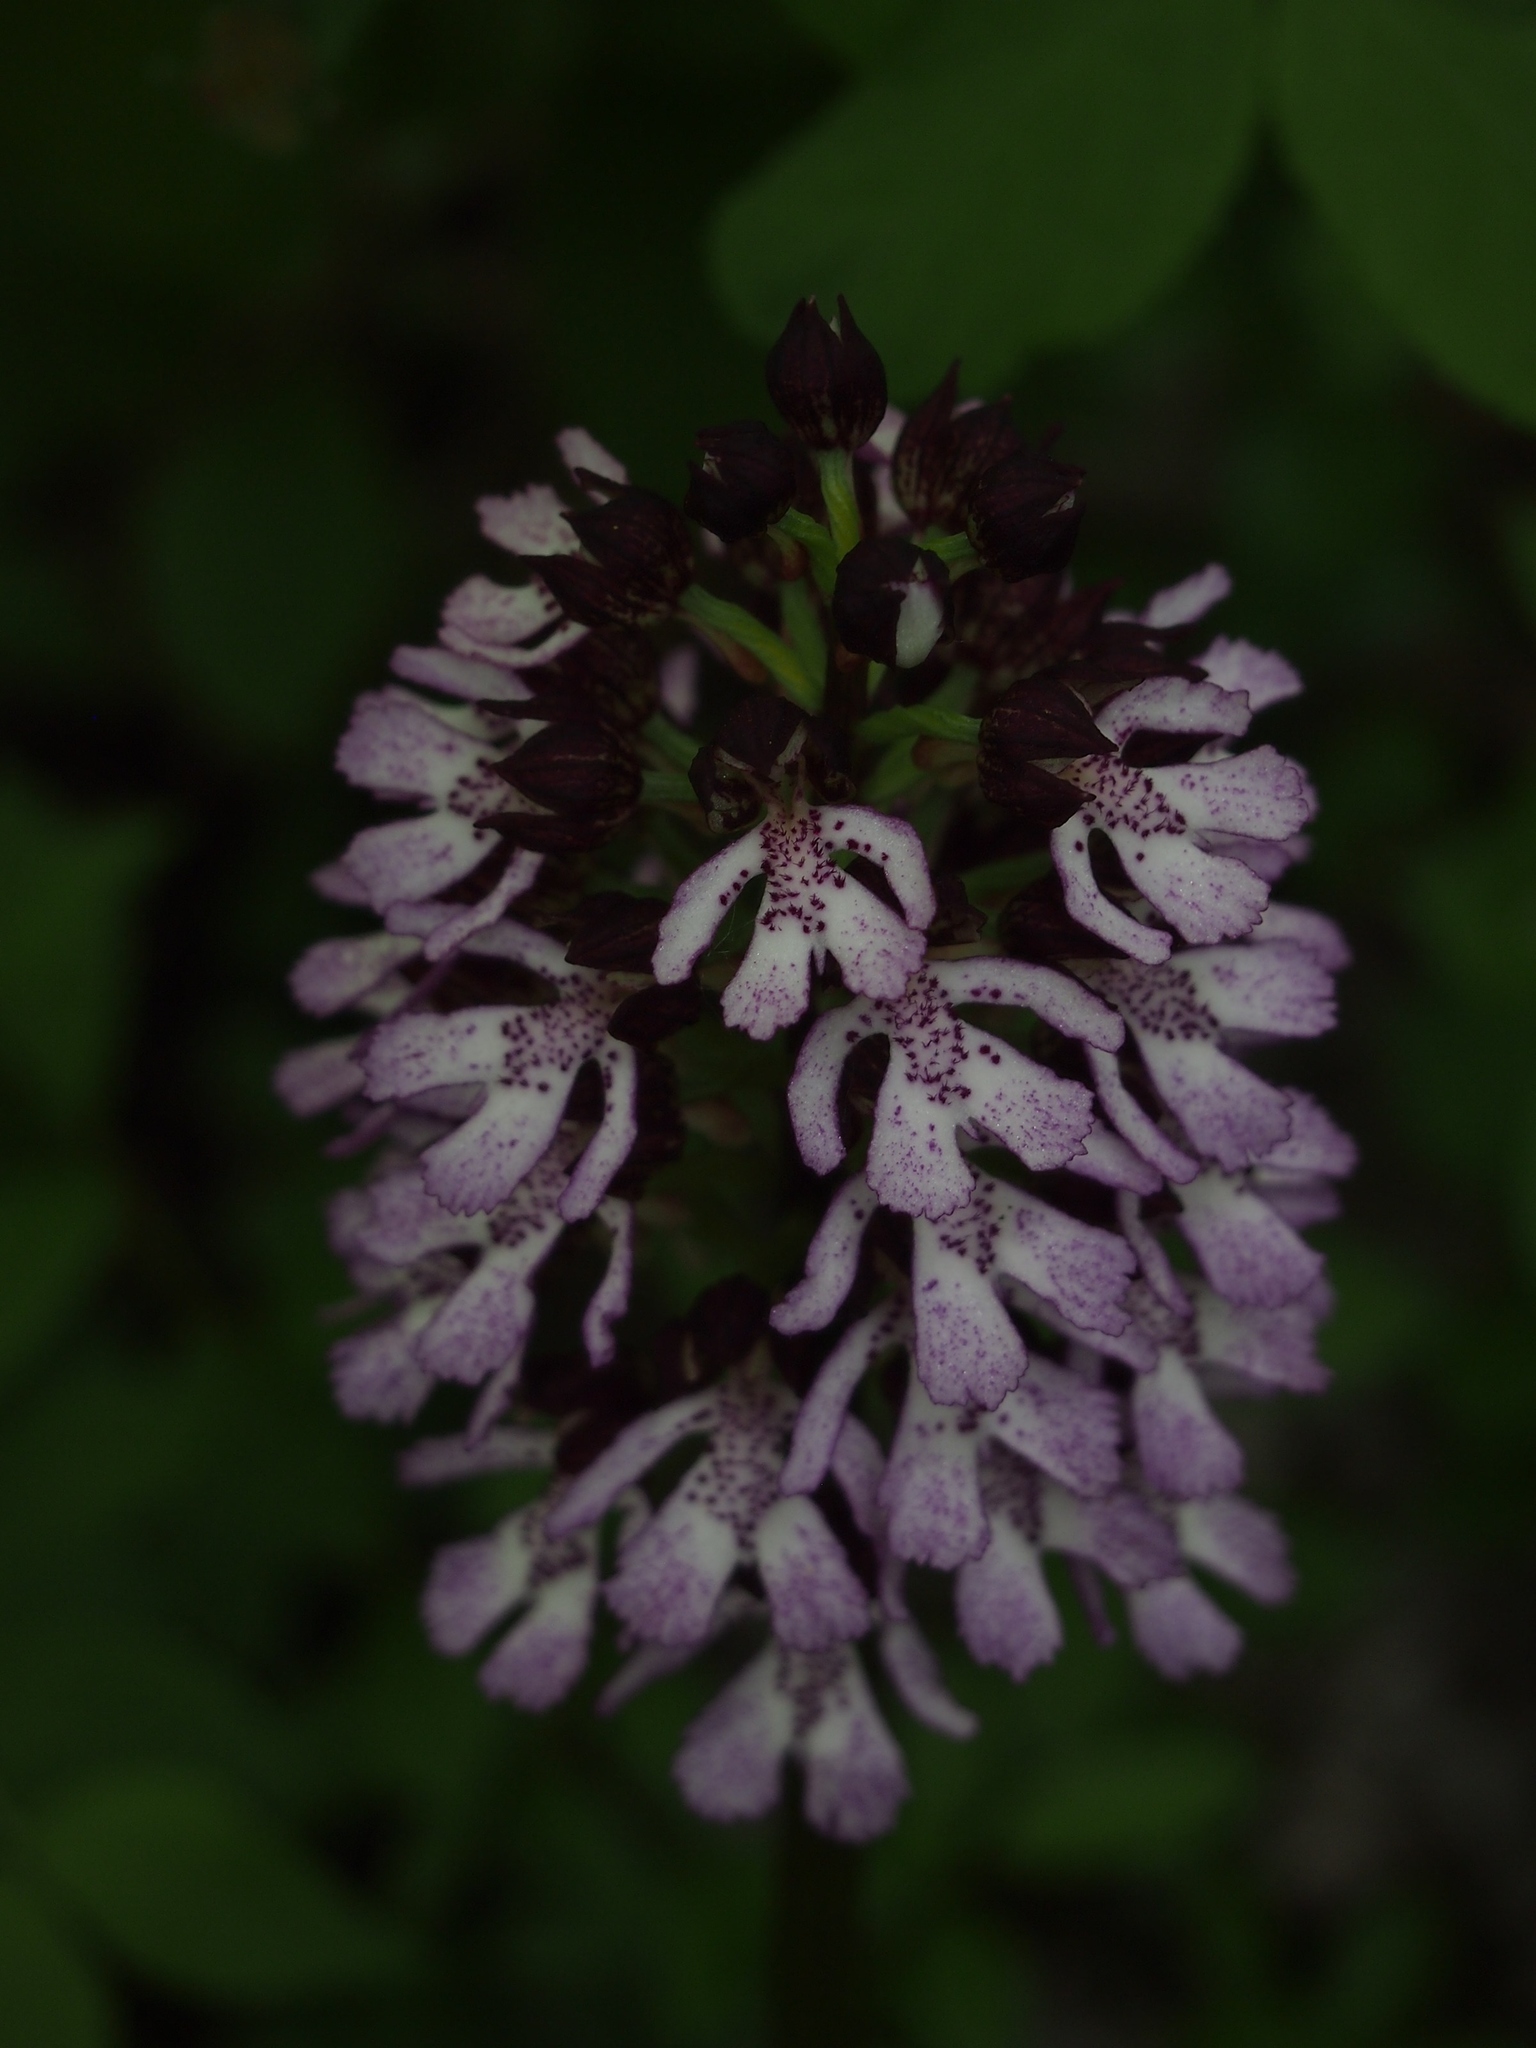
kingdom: Plantae
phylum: Tracheophyta
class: Liliopsida
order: Asparagales
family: Orchidaceae
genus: Orchis
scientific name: Orchis purpurea
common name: Lady orchid
